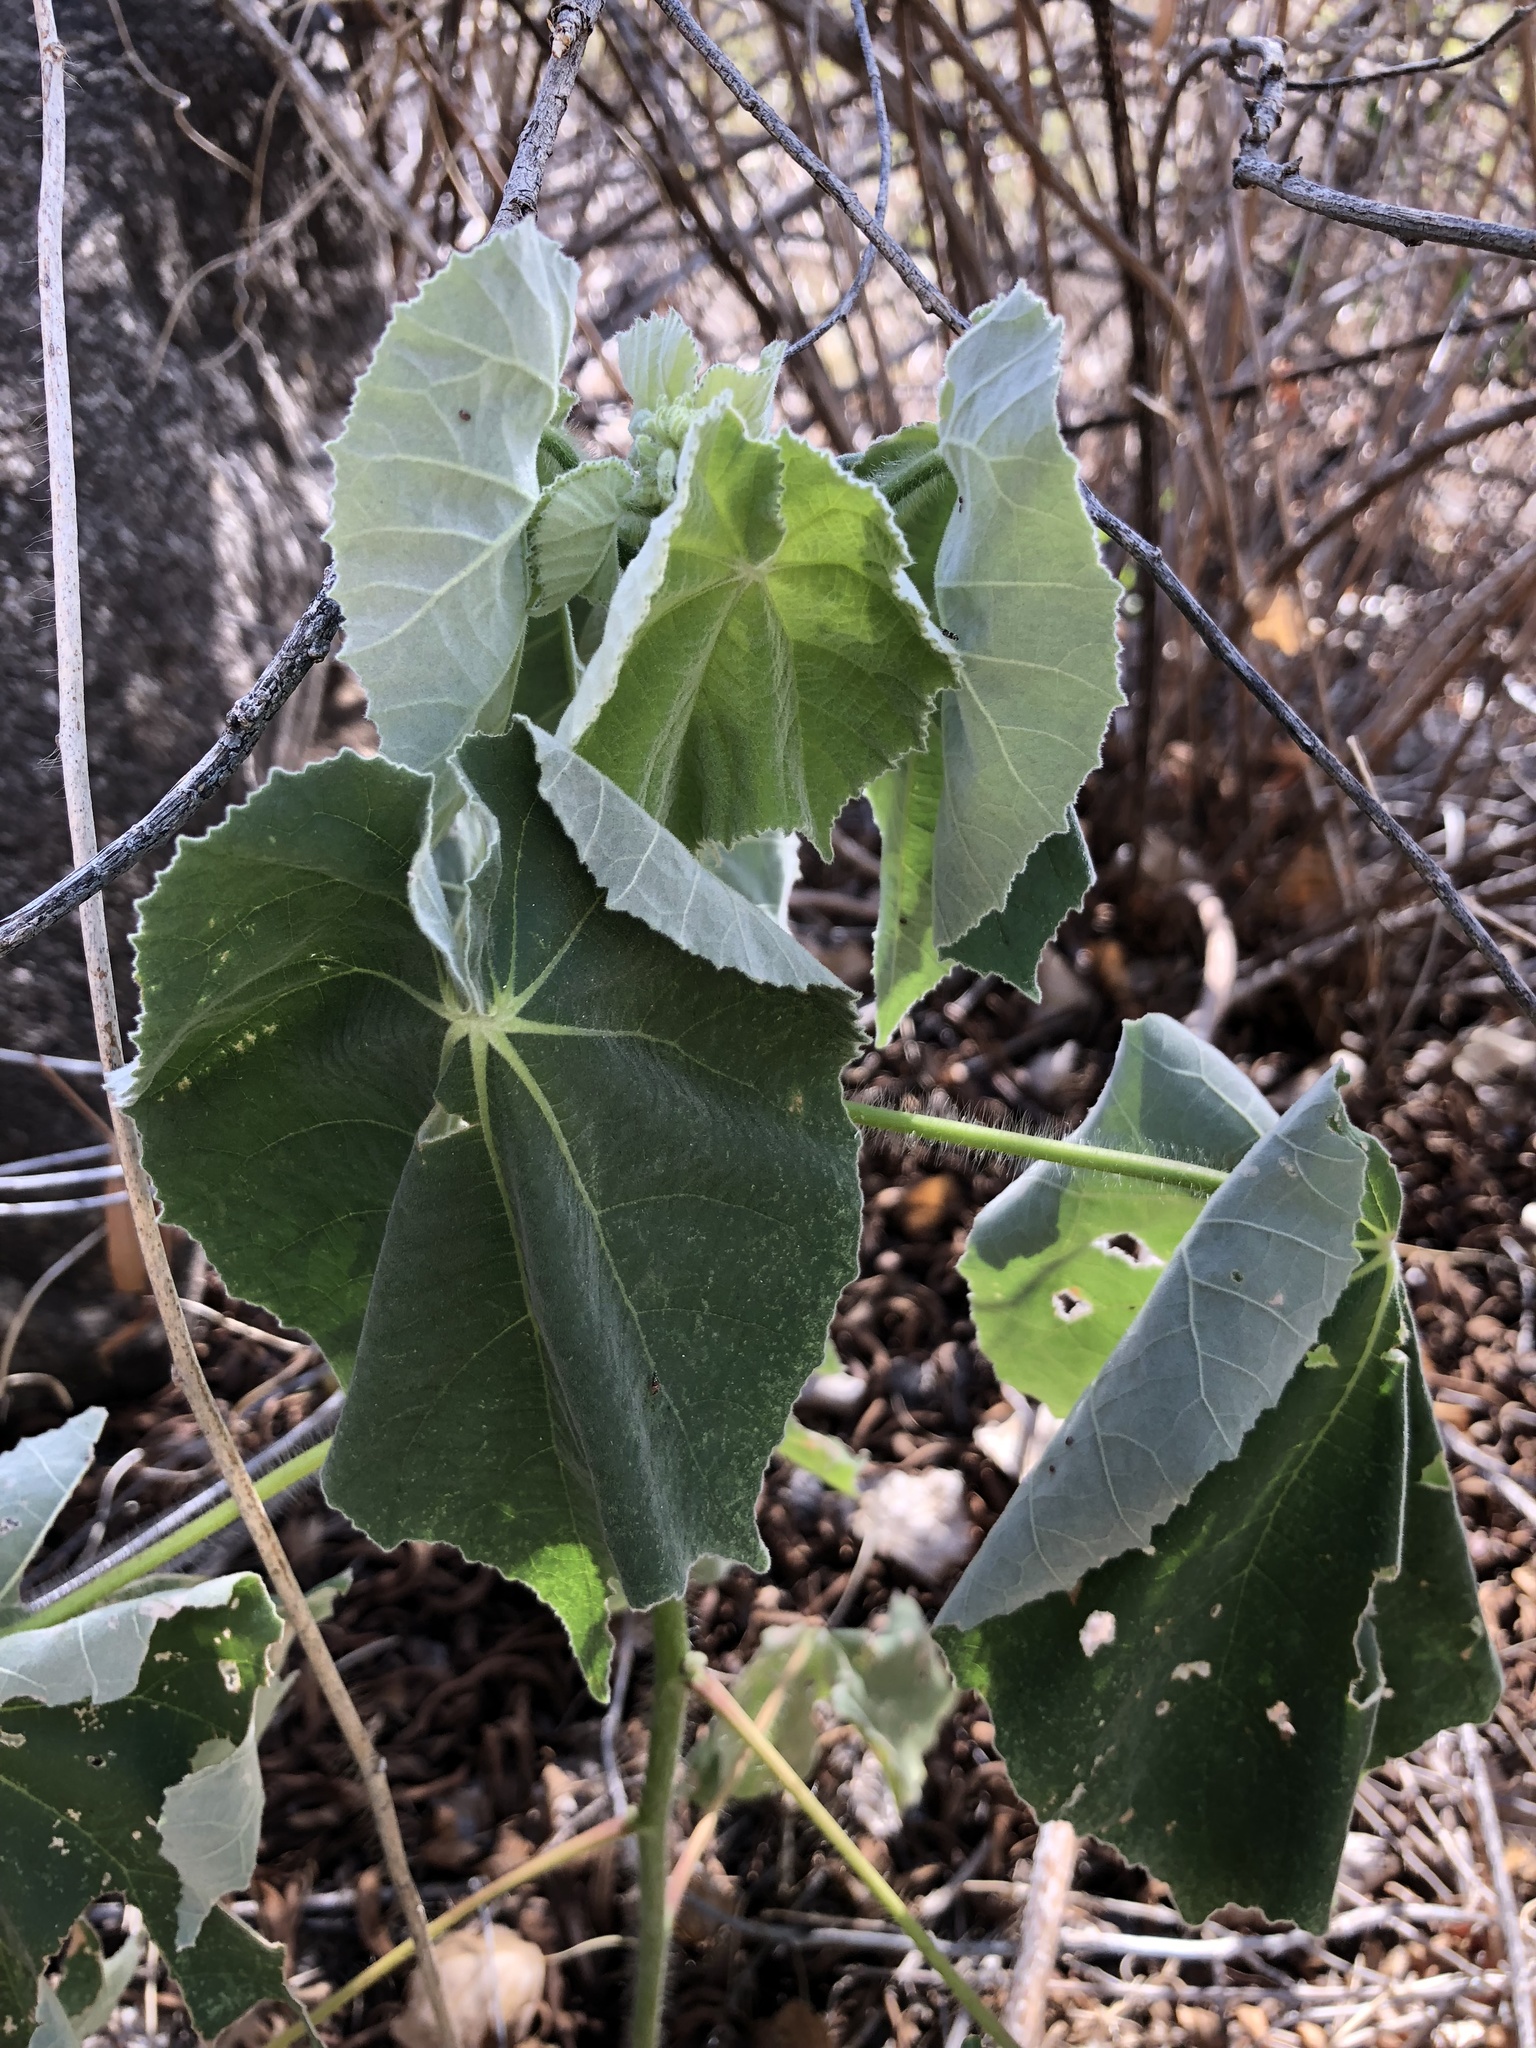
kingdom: Plantae
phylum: Tracheophyta
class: Magnoliopsida
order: Malvales
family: Malvaceae
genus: Abutilon
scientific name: Abutilon mollicomum
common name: Sonoran indian-mallow
